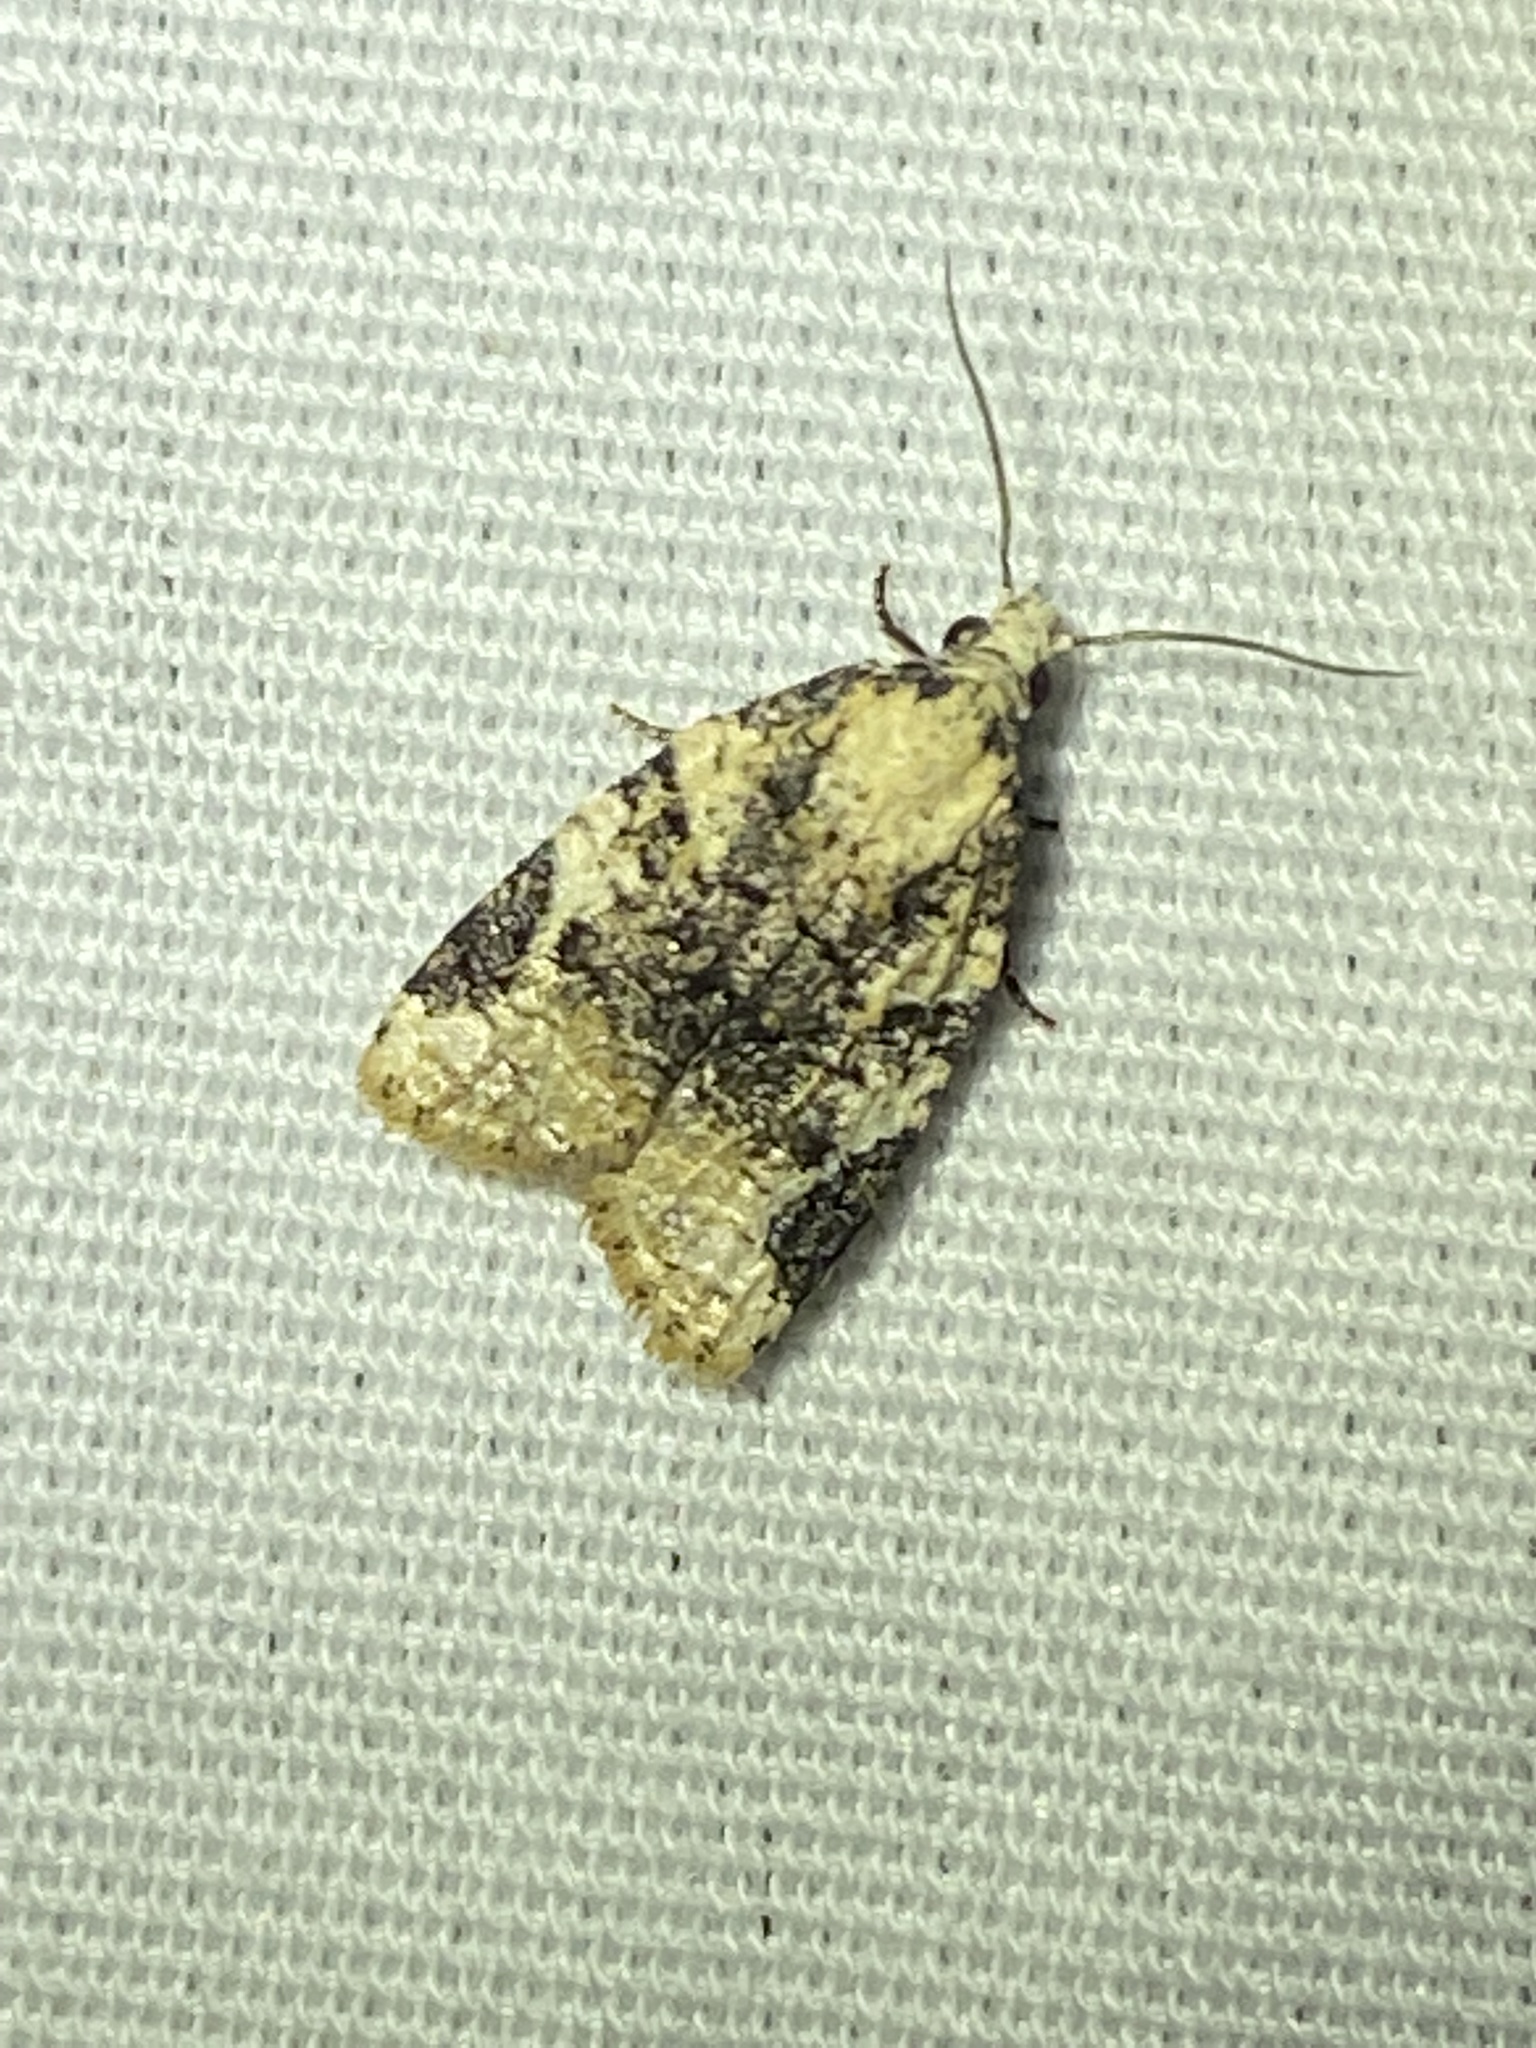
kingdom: Animalia
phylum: Arthropoda
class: Insecta
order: Lepidoptera
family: Tortricidae
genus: Platynota
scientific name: Platynota exasperatana
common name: Exasperating platynota moth
